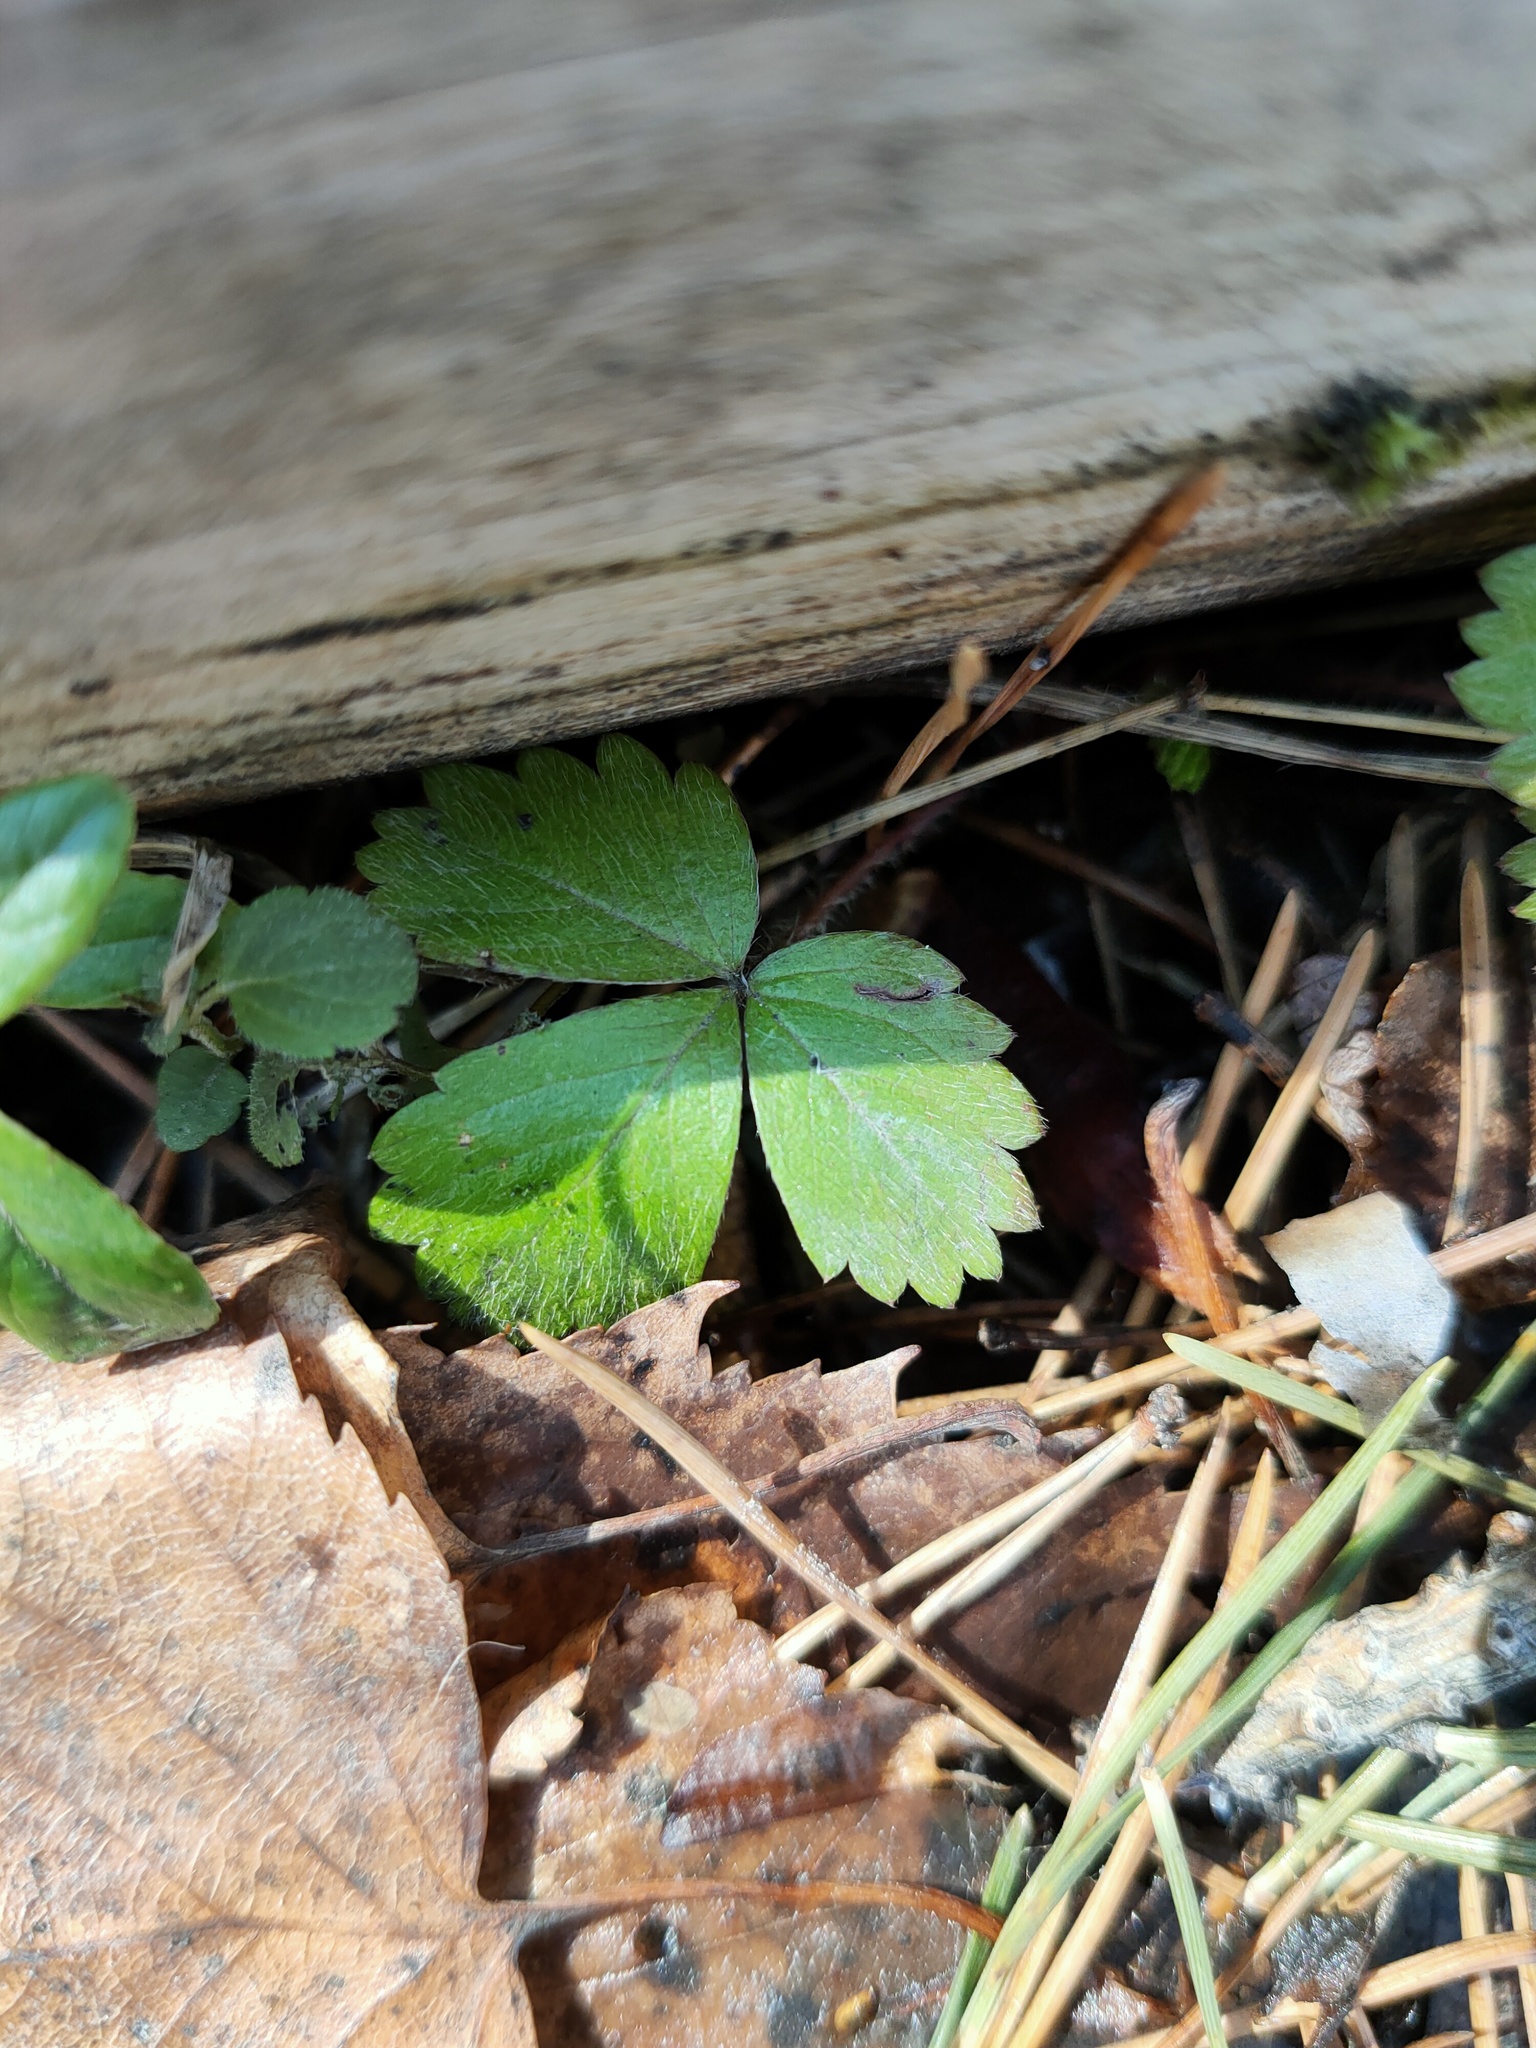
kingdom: Plantae
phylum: Tracheophyta
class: Magnoliopsida
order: Rosales
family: Rosaceae
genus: Fragaria
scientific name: Fragaria vesca
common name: Wild strawberry
